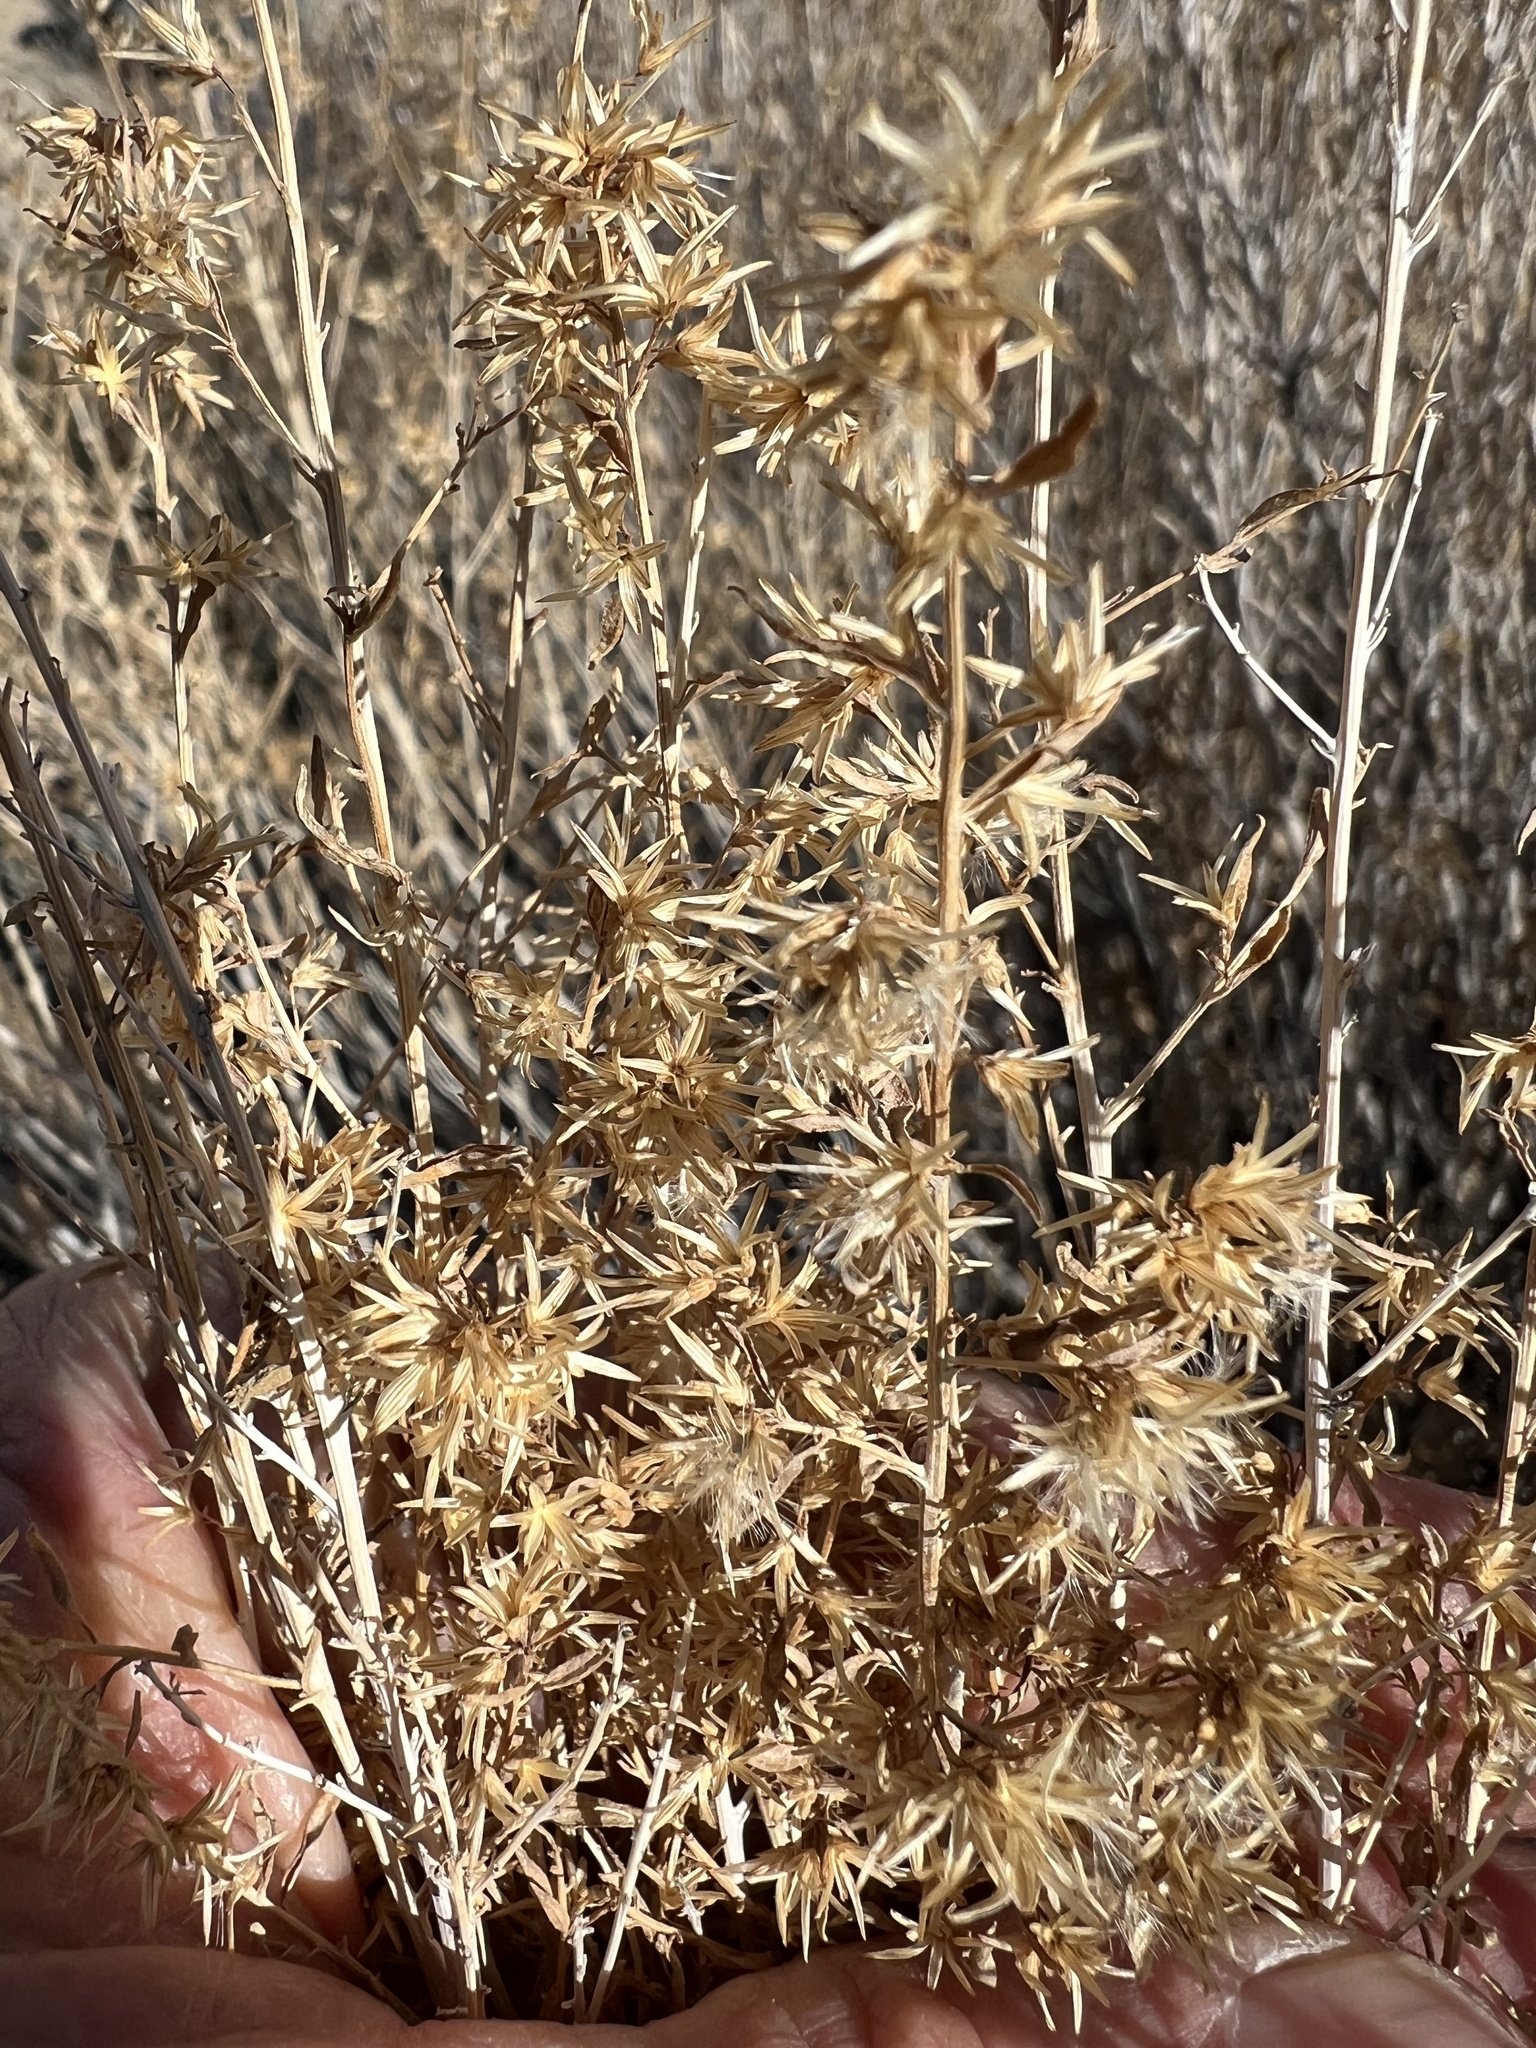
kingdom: Plantae
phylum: Tracheophyta
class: Magnoliopsida
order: Asterales
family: Asteraceae
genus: Brickellia
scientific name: Brickellia longifolia
